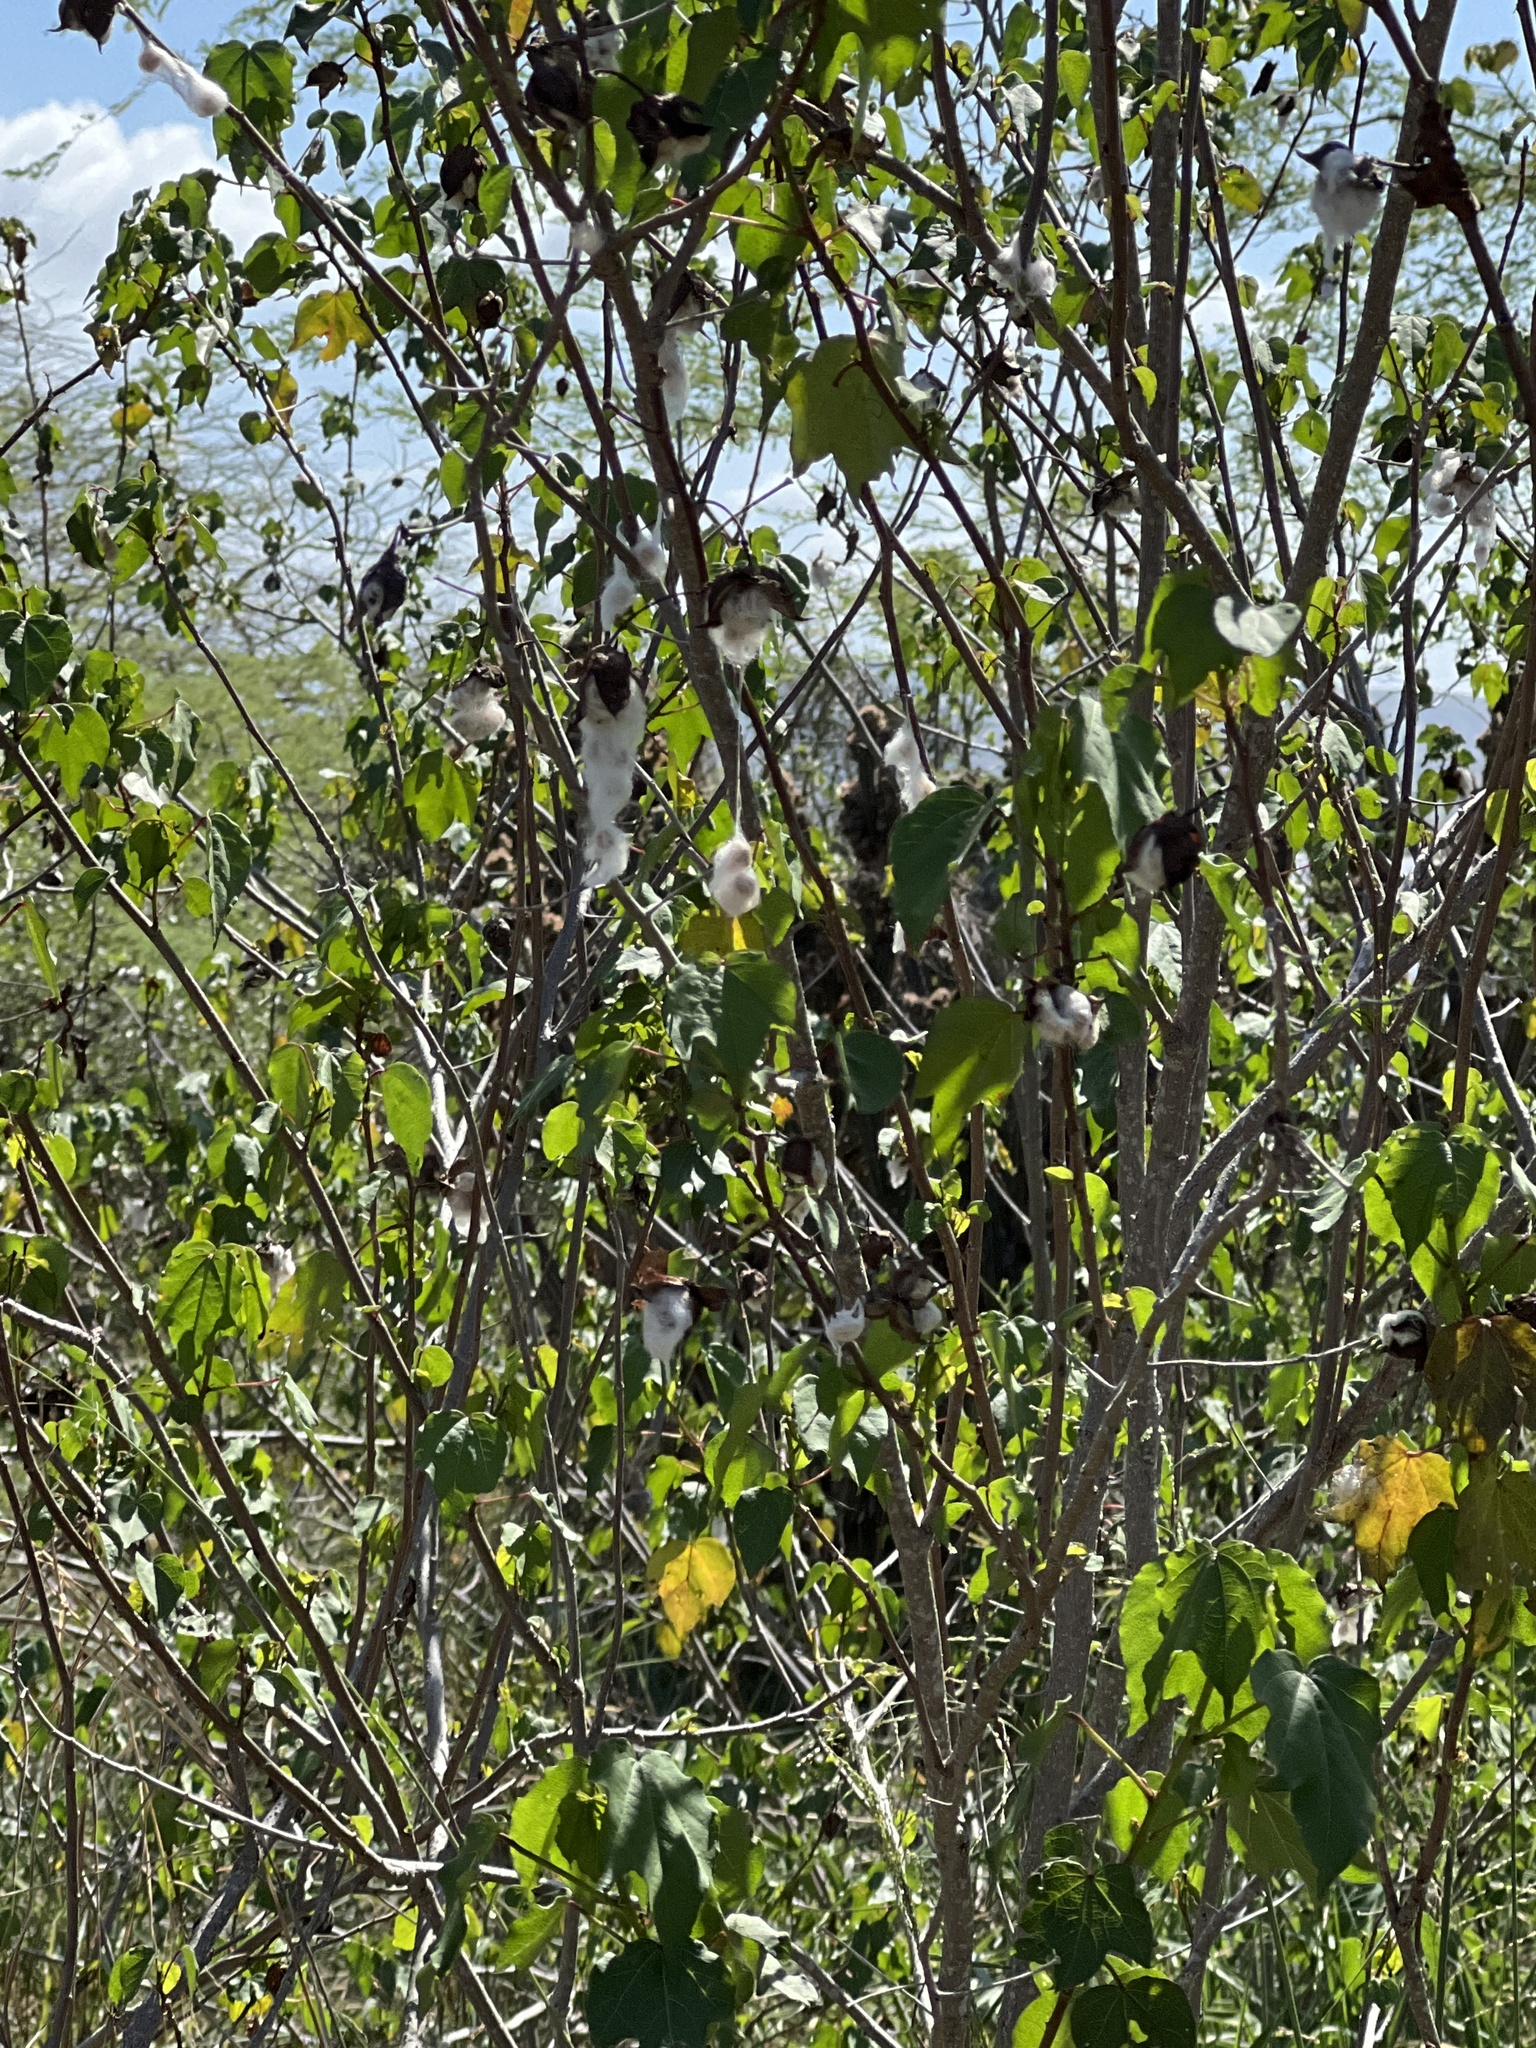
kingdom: Plantae
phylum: Tracheophyta
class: Magnoliopsida
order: Malvales
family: Malvaceae
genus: Gossypium
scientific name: Gossypium hirsutum
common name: Cotton
